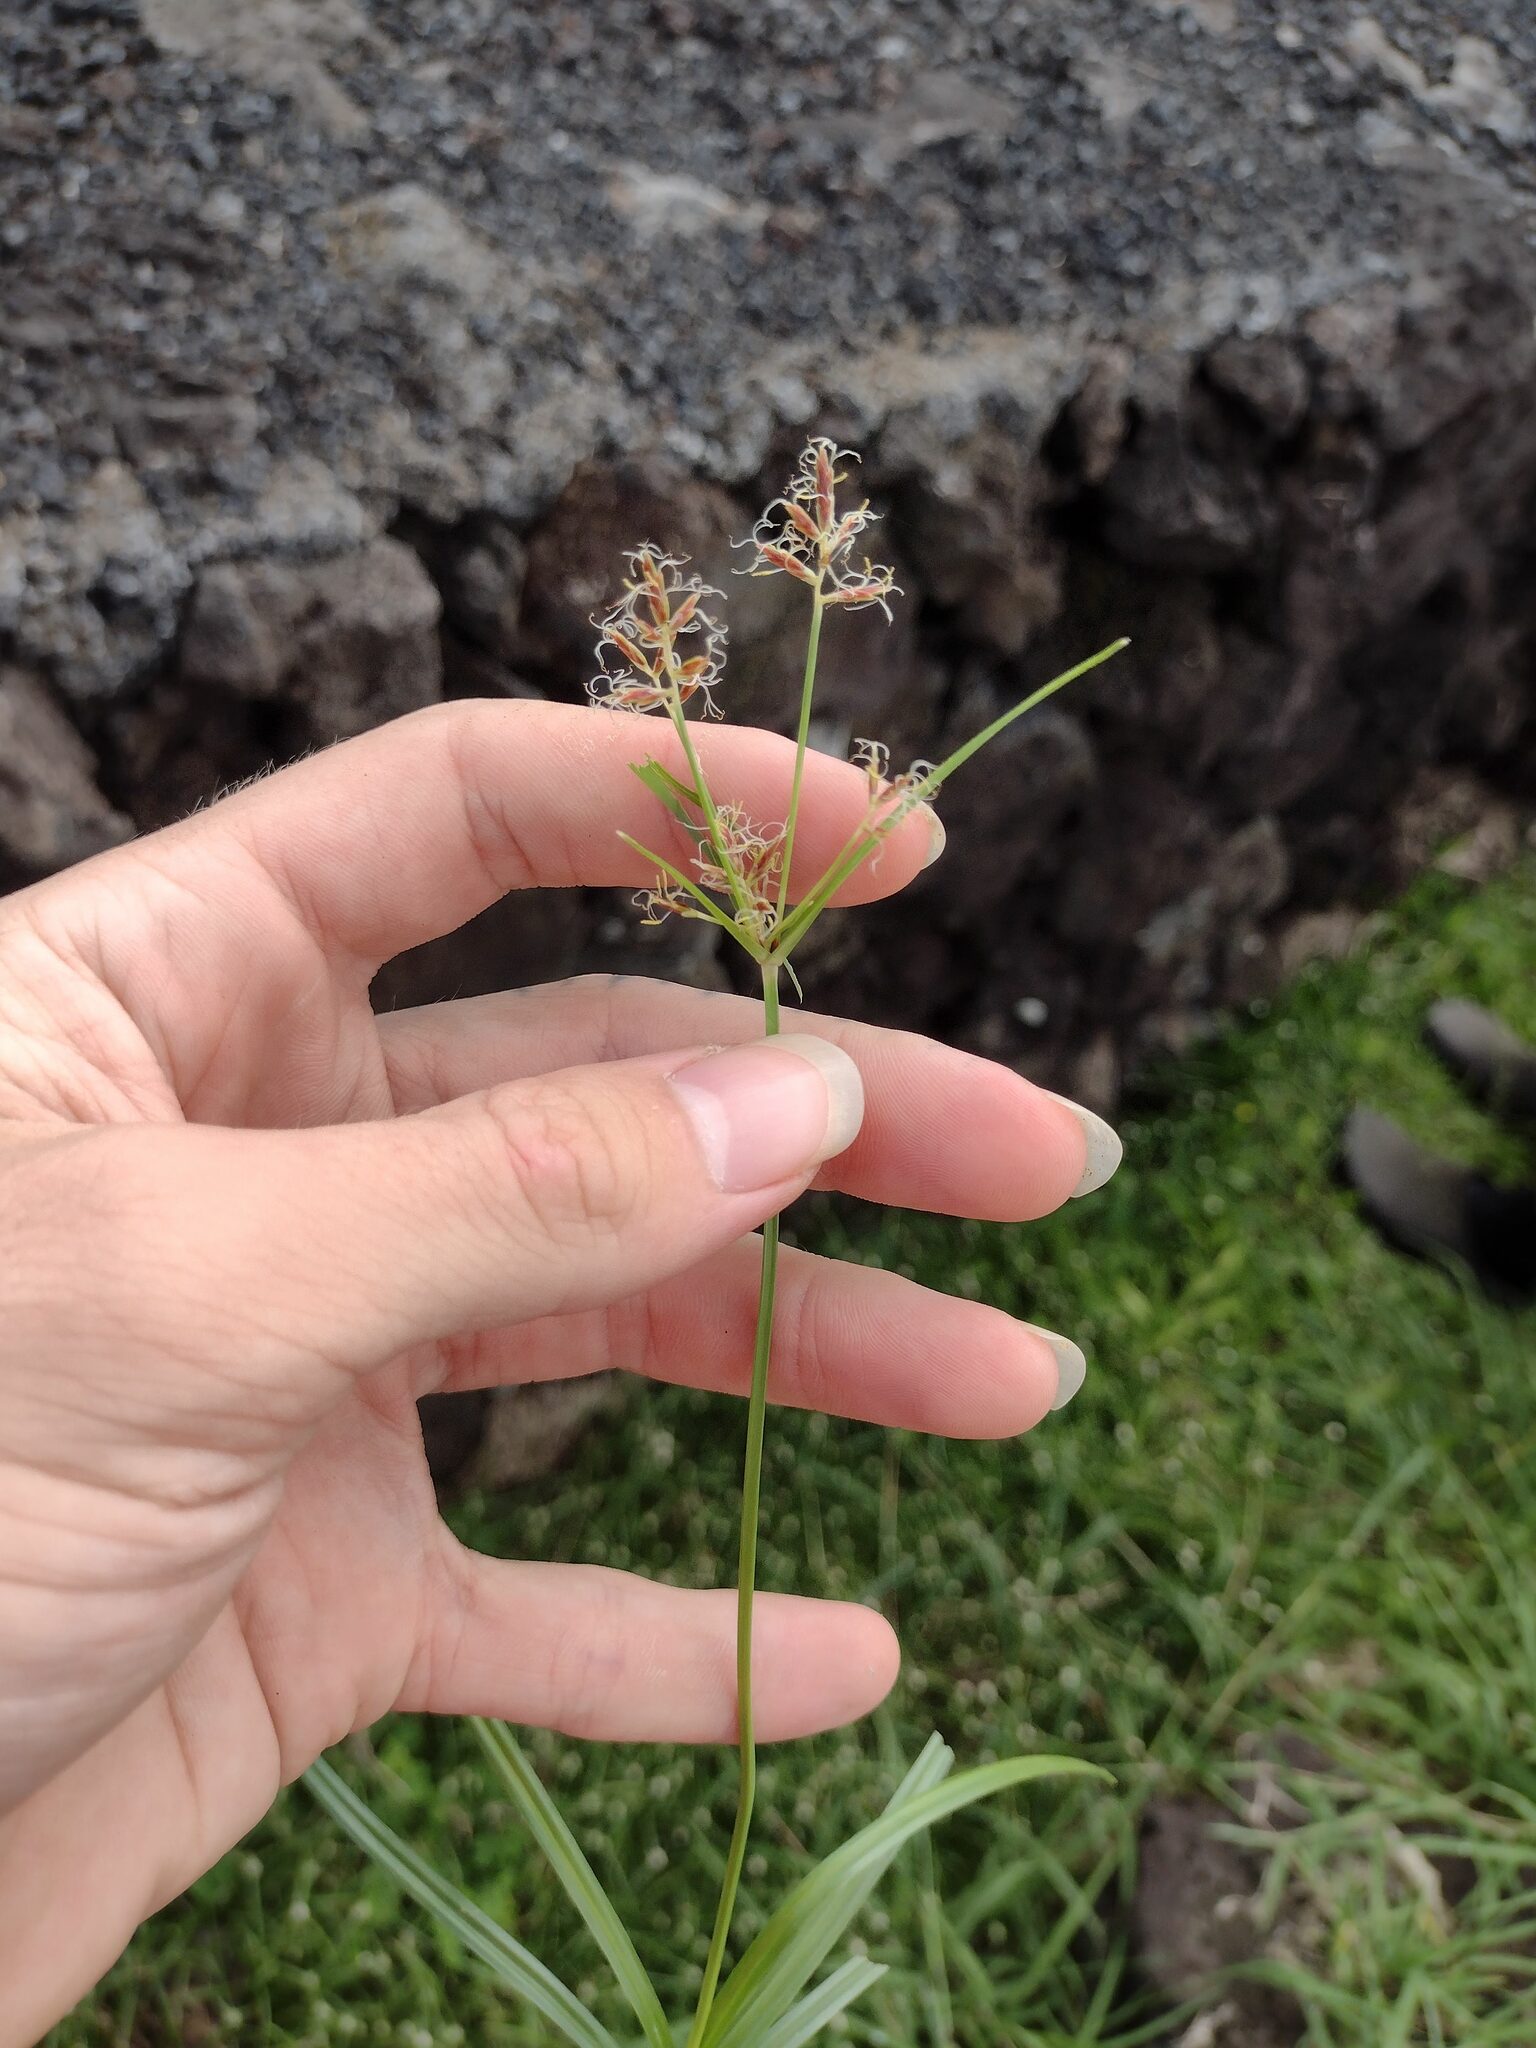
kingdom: Plantae
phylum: Tracheophyta
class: Liliopsida
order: Poales
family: Cyperaceae
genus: Cyperus
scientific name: Cyperus rotundus
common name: Nutgrass
